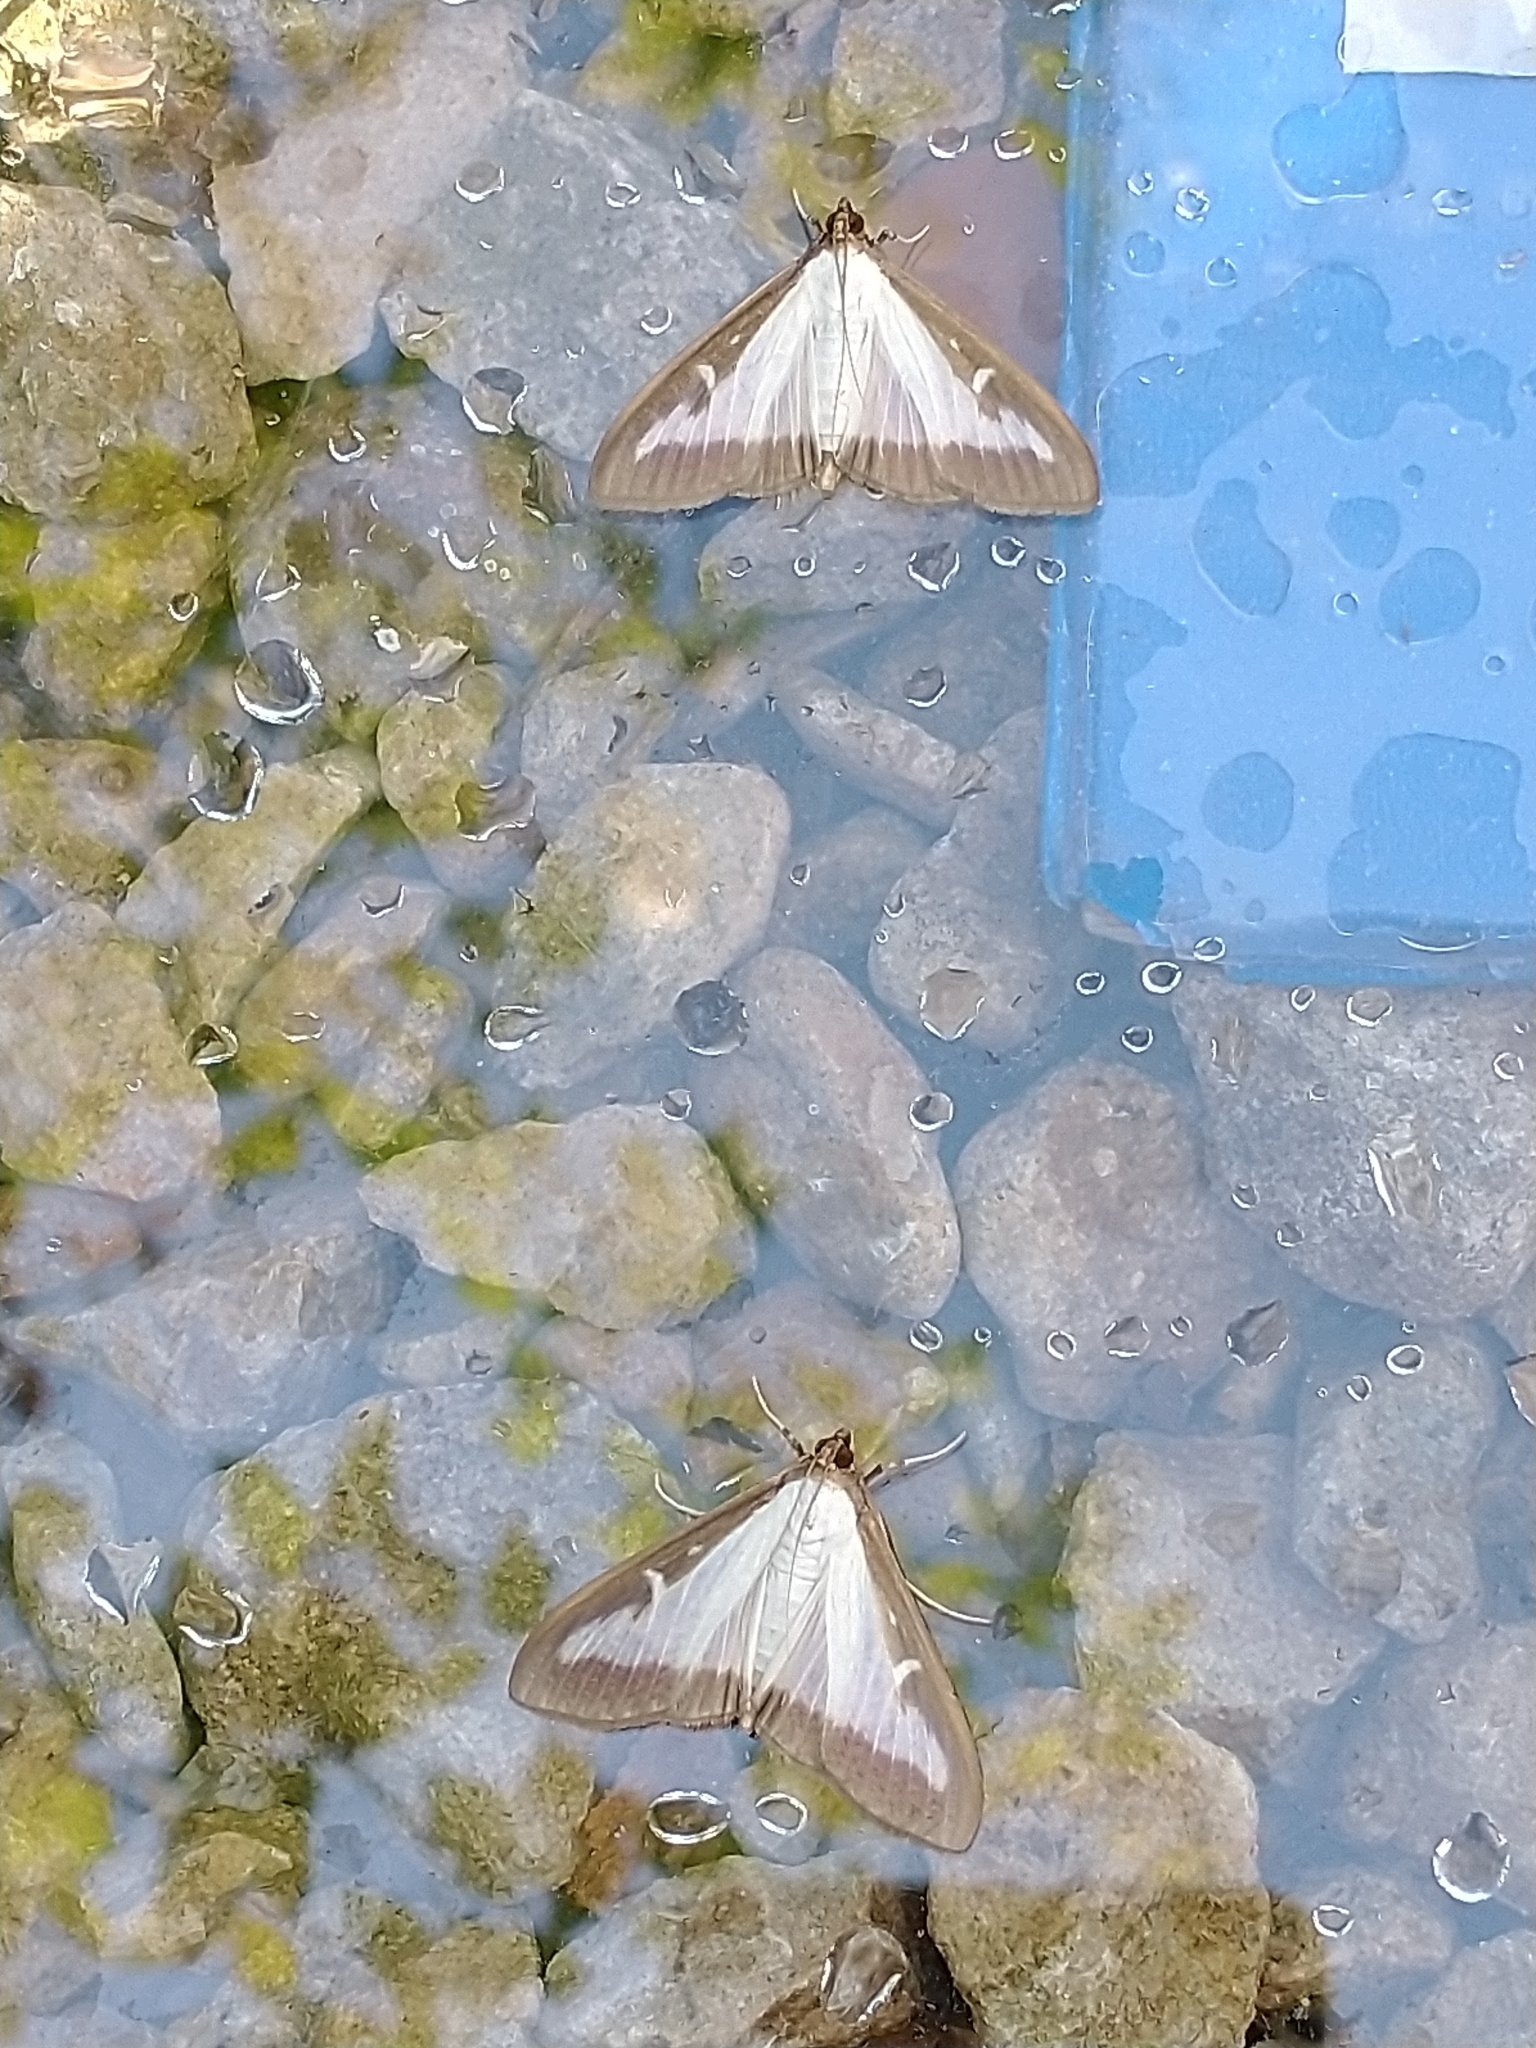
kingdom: Animalia
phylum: Arthropoda
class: Insecta
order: Lepidoptera
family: Crambidae
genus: Cydalima
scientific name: Cydalima perspectalis
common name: Box tree moth
